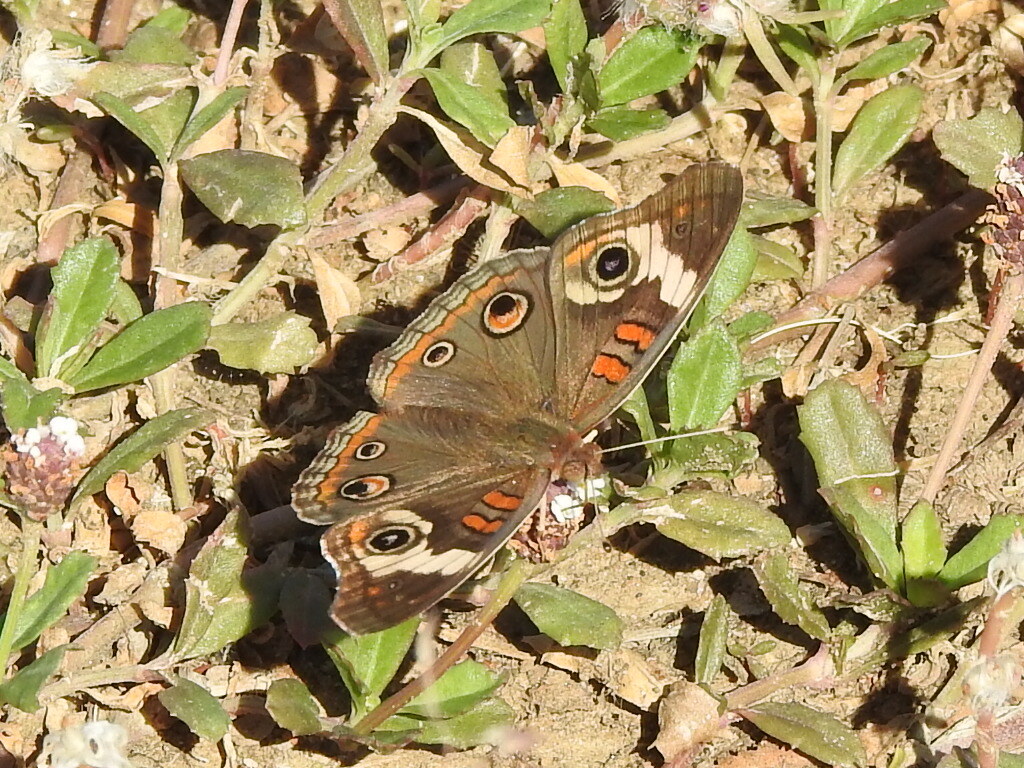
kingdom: Animalia
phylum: Arthropoda
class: Insecta
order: Lepidoptera
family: Nymphalidae
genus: Junonia
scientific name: Junonia coenia
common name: Common buckeye
